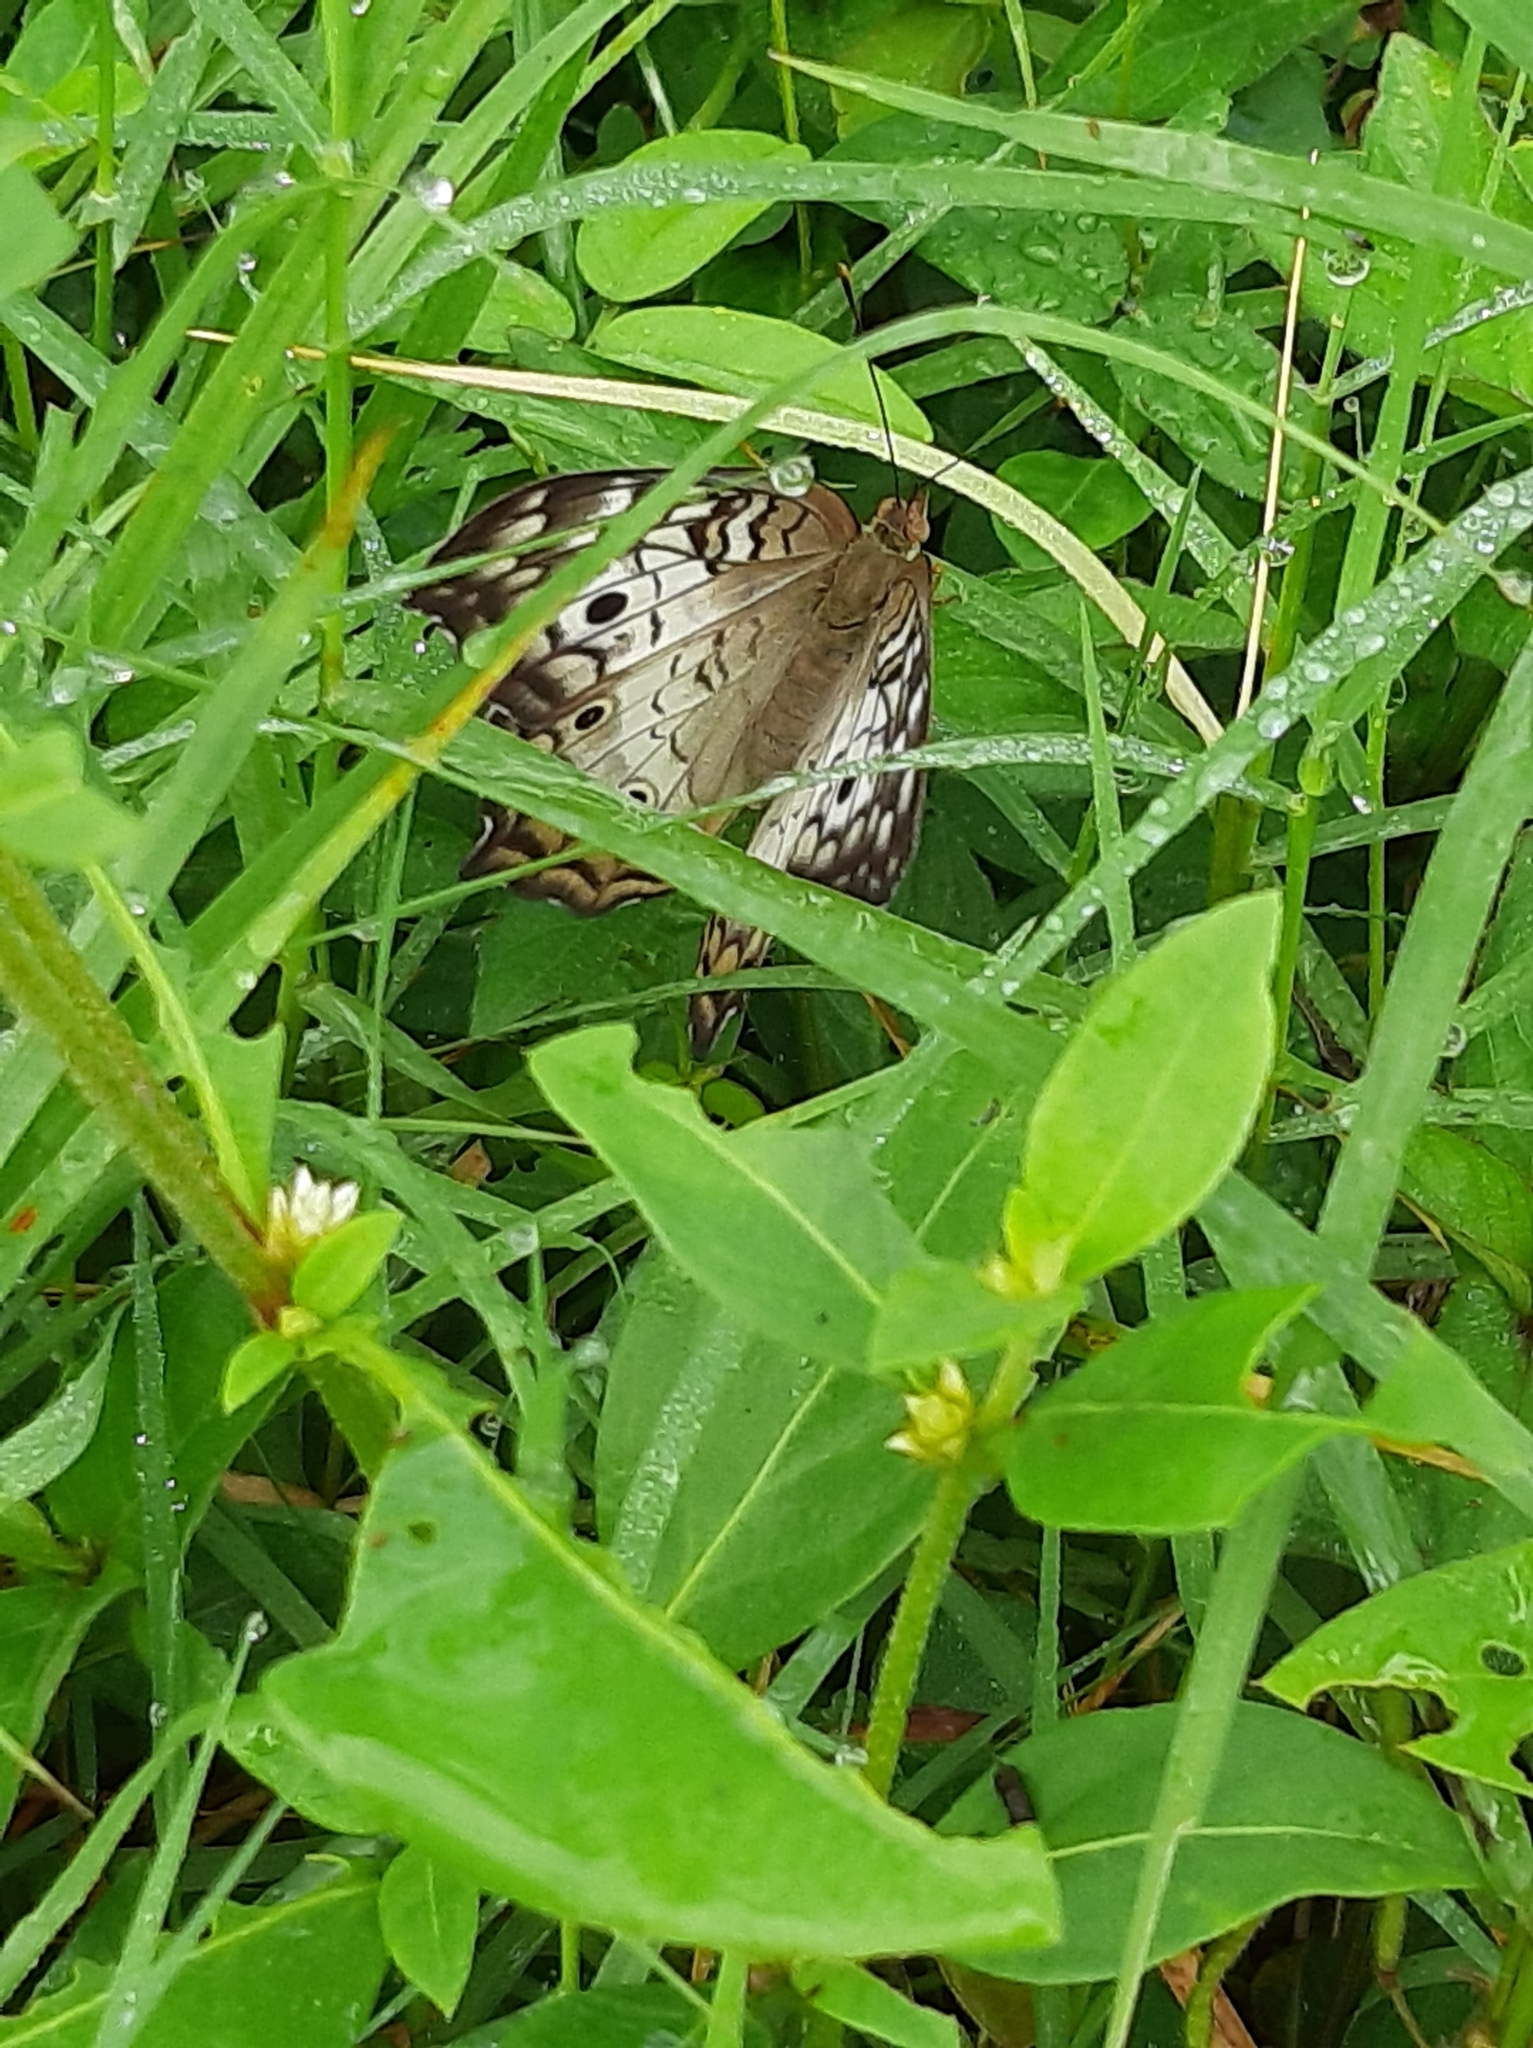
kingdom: Animalia
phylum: Arthropoda
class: Insecta
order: Lepidoptera
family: Nymphalidae
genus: Anartia
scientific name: Anartia jatrophae
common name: White peacock
